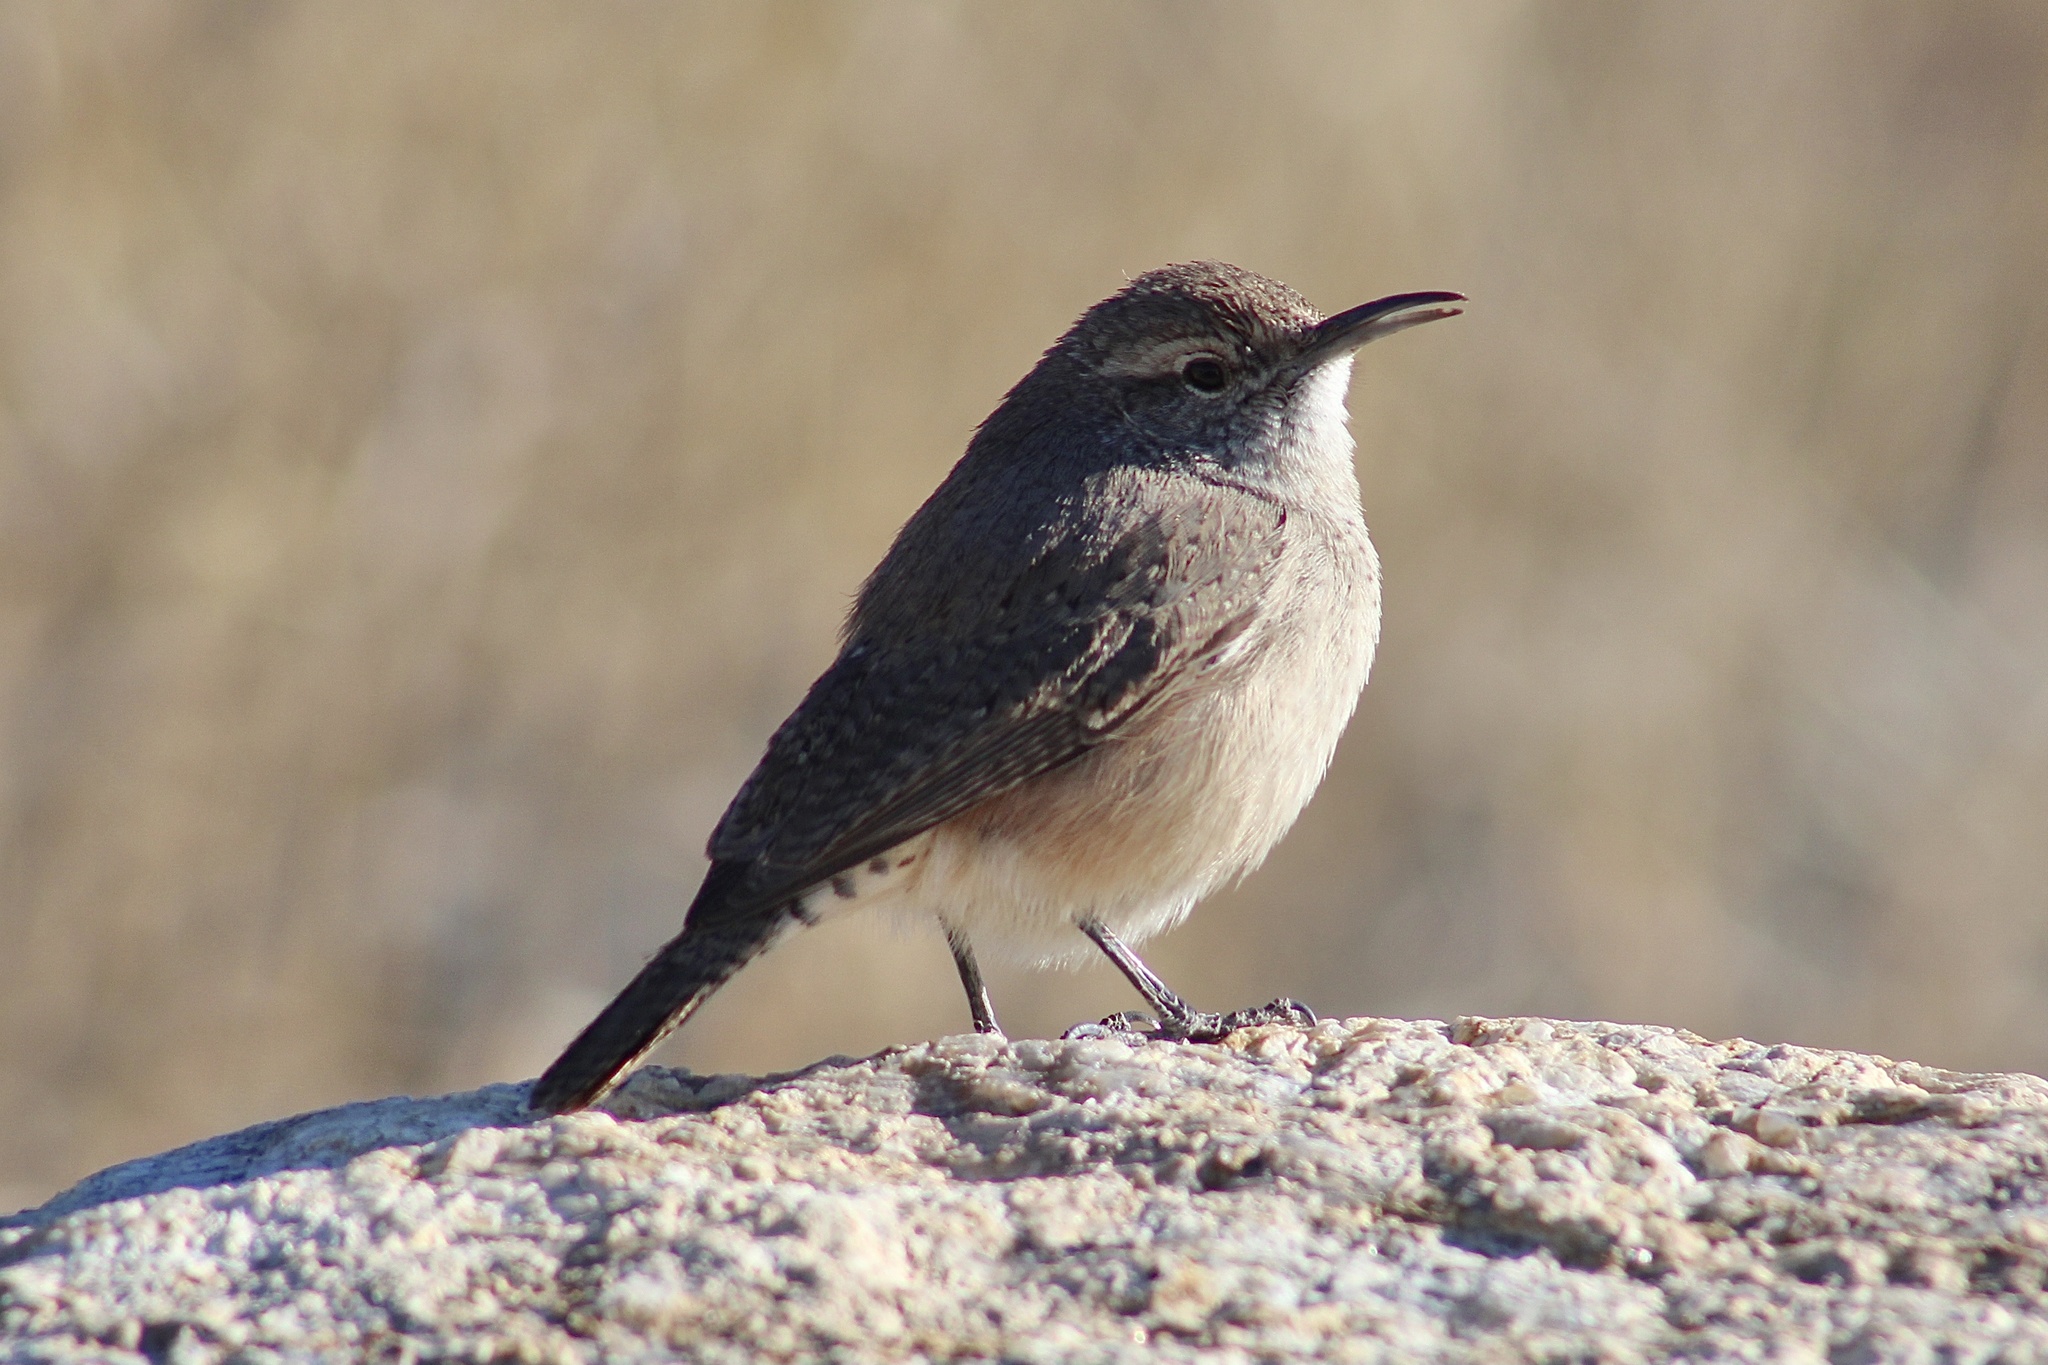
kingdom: Animalia
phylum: Chordata
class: Aves
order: Passeriformes
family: Troglodytidae
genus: Salpinctes
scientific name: Salpinctes obsoletus
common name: Rock wren
